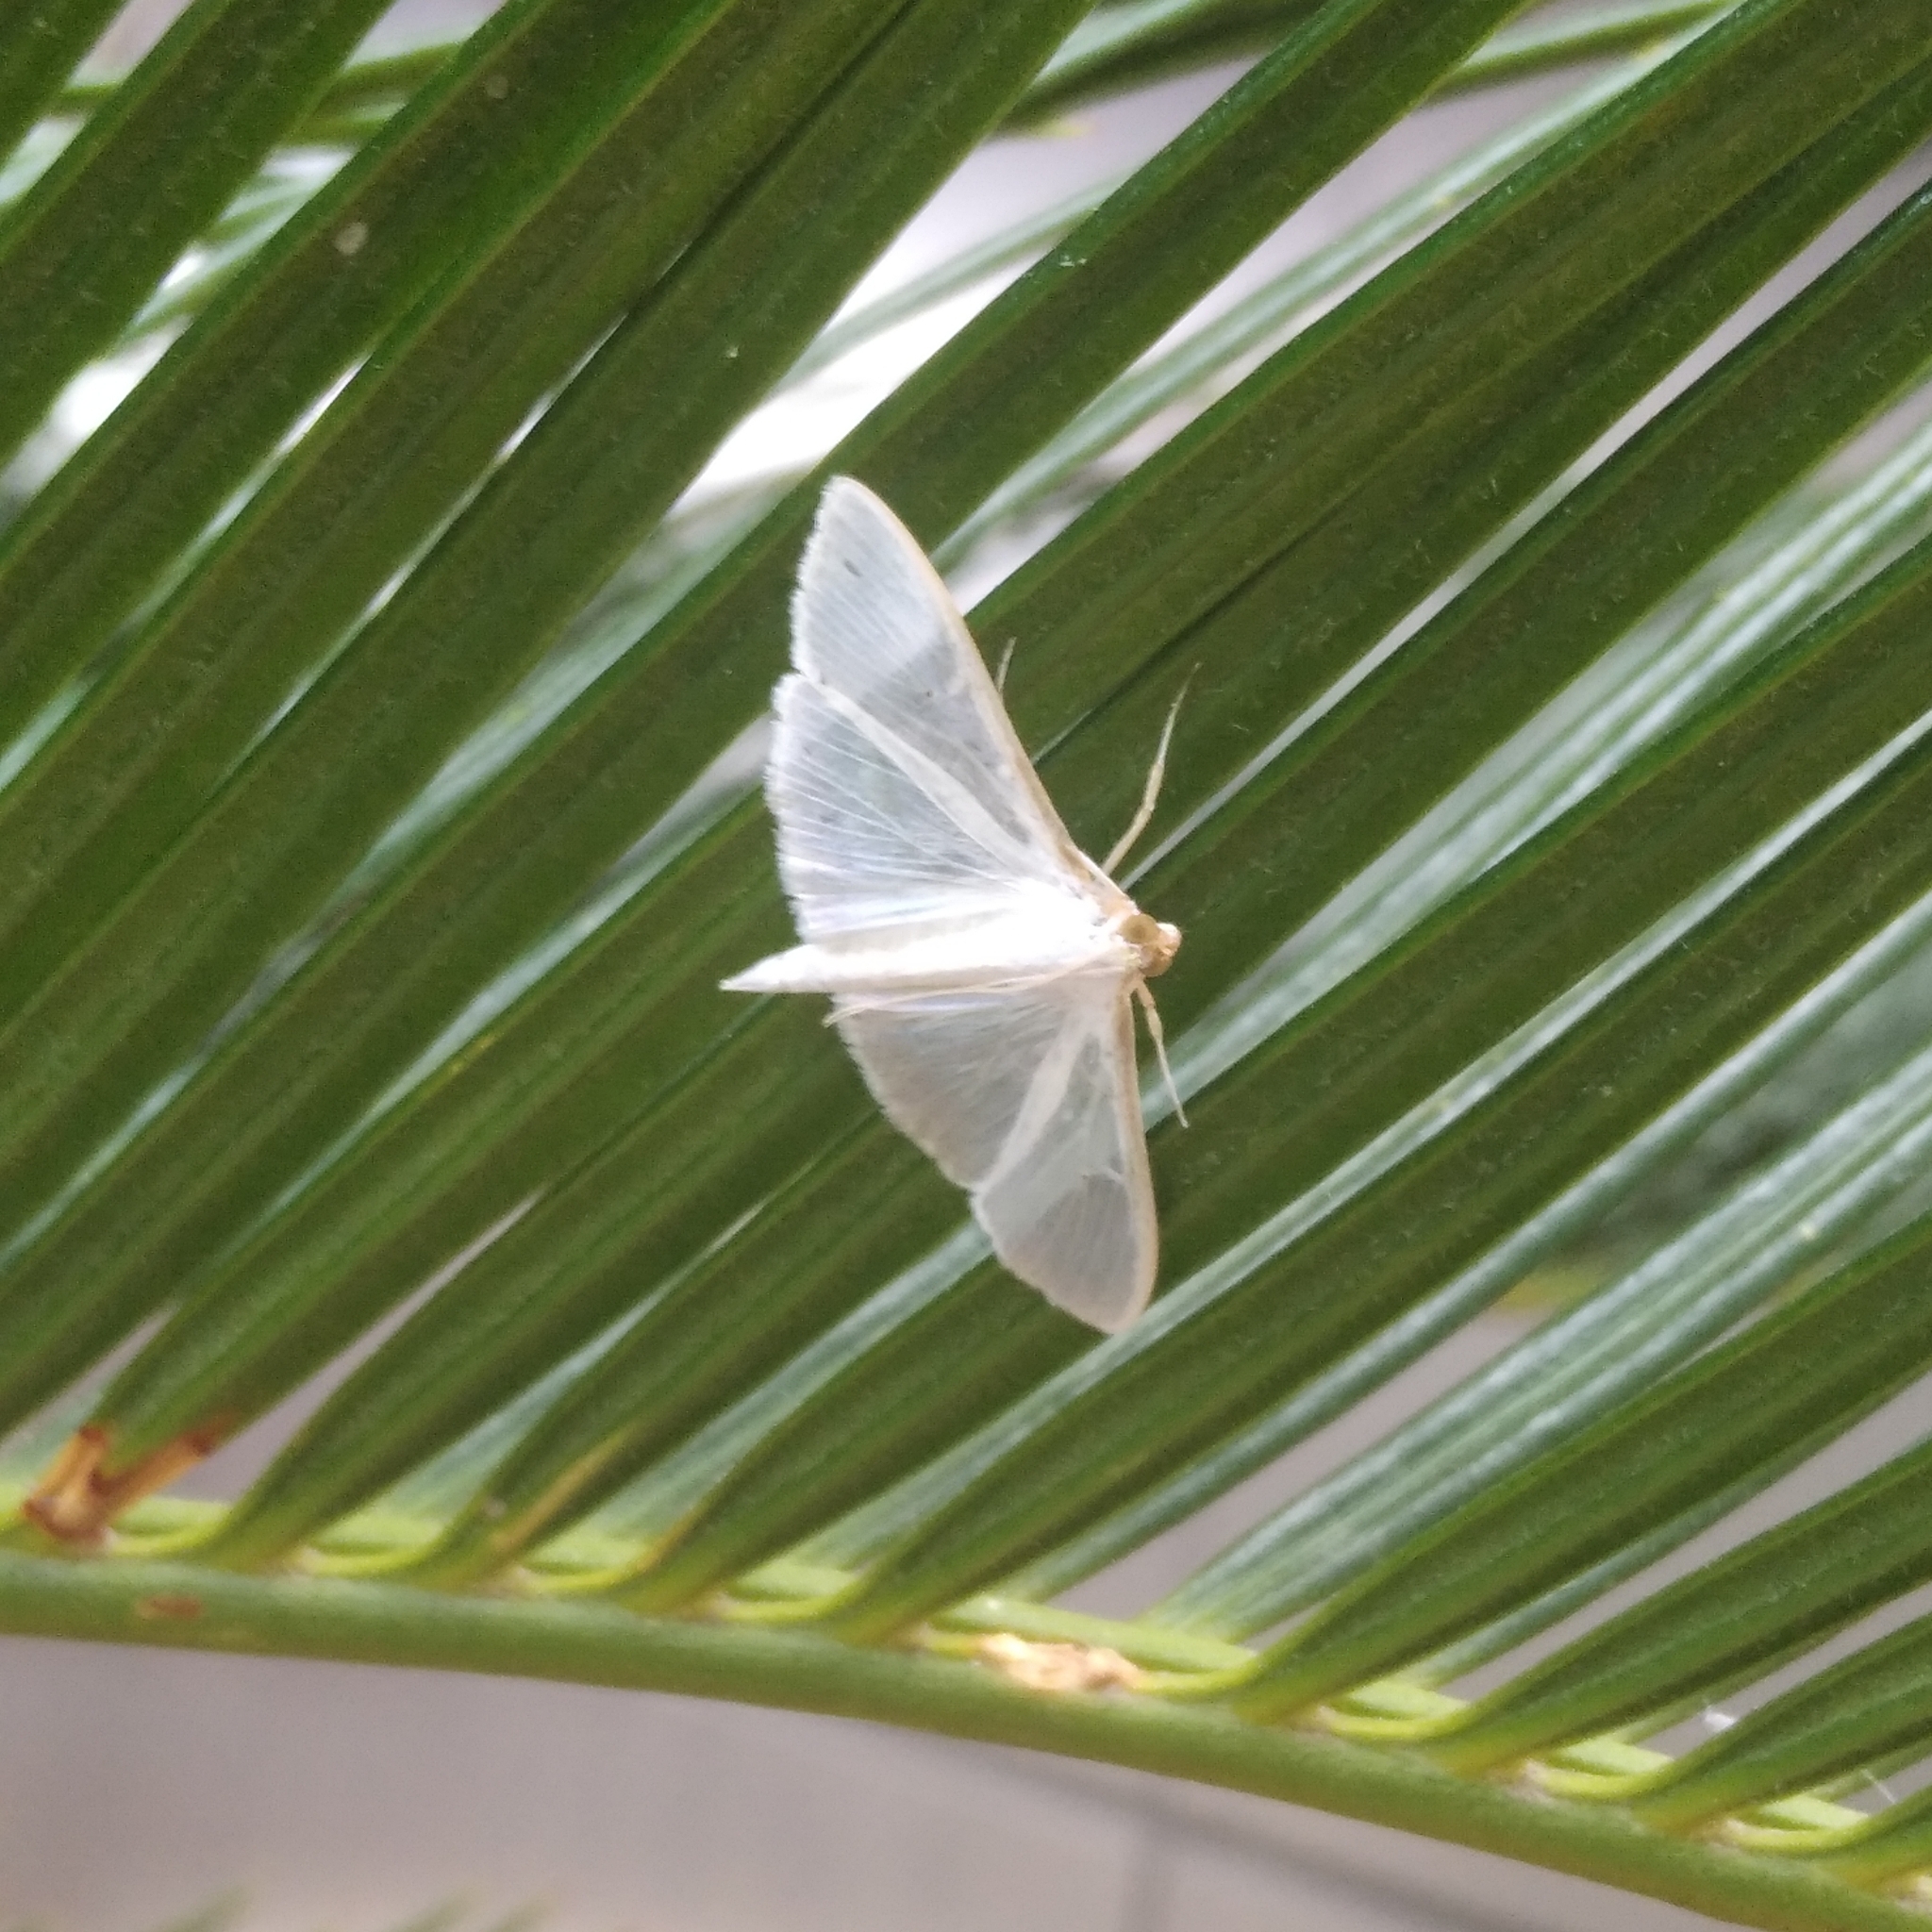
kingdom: Animalia
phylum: Arthropoda
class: Insecta
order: Lepidoptera
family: Crambidae
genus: Palpita
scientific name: Palpita vitrealis
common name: Olive-tree pearl
